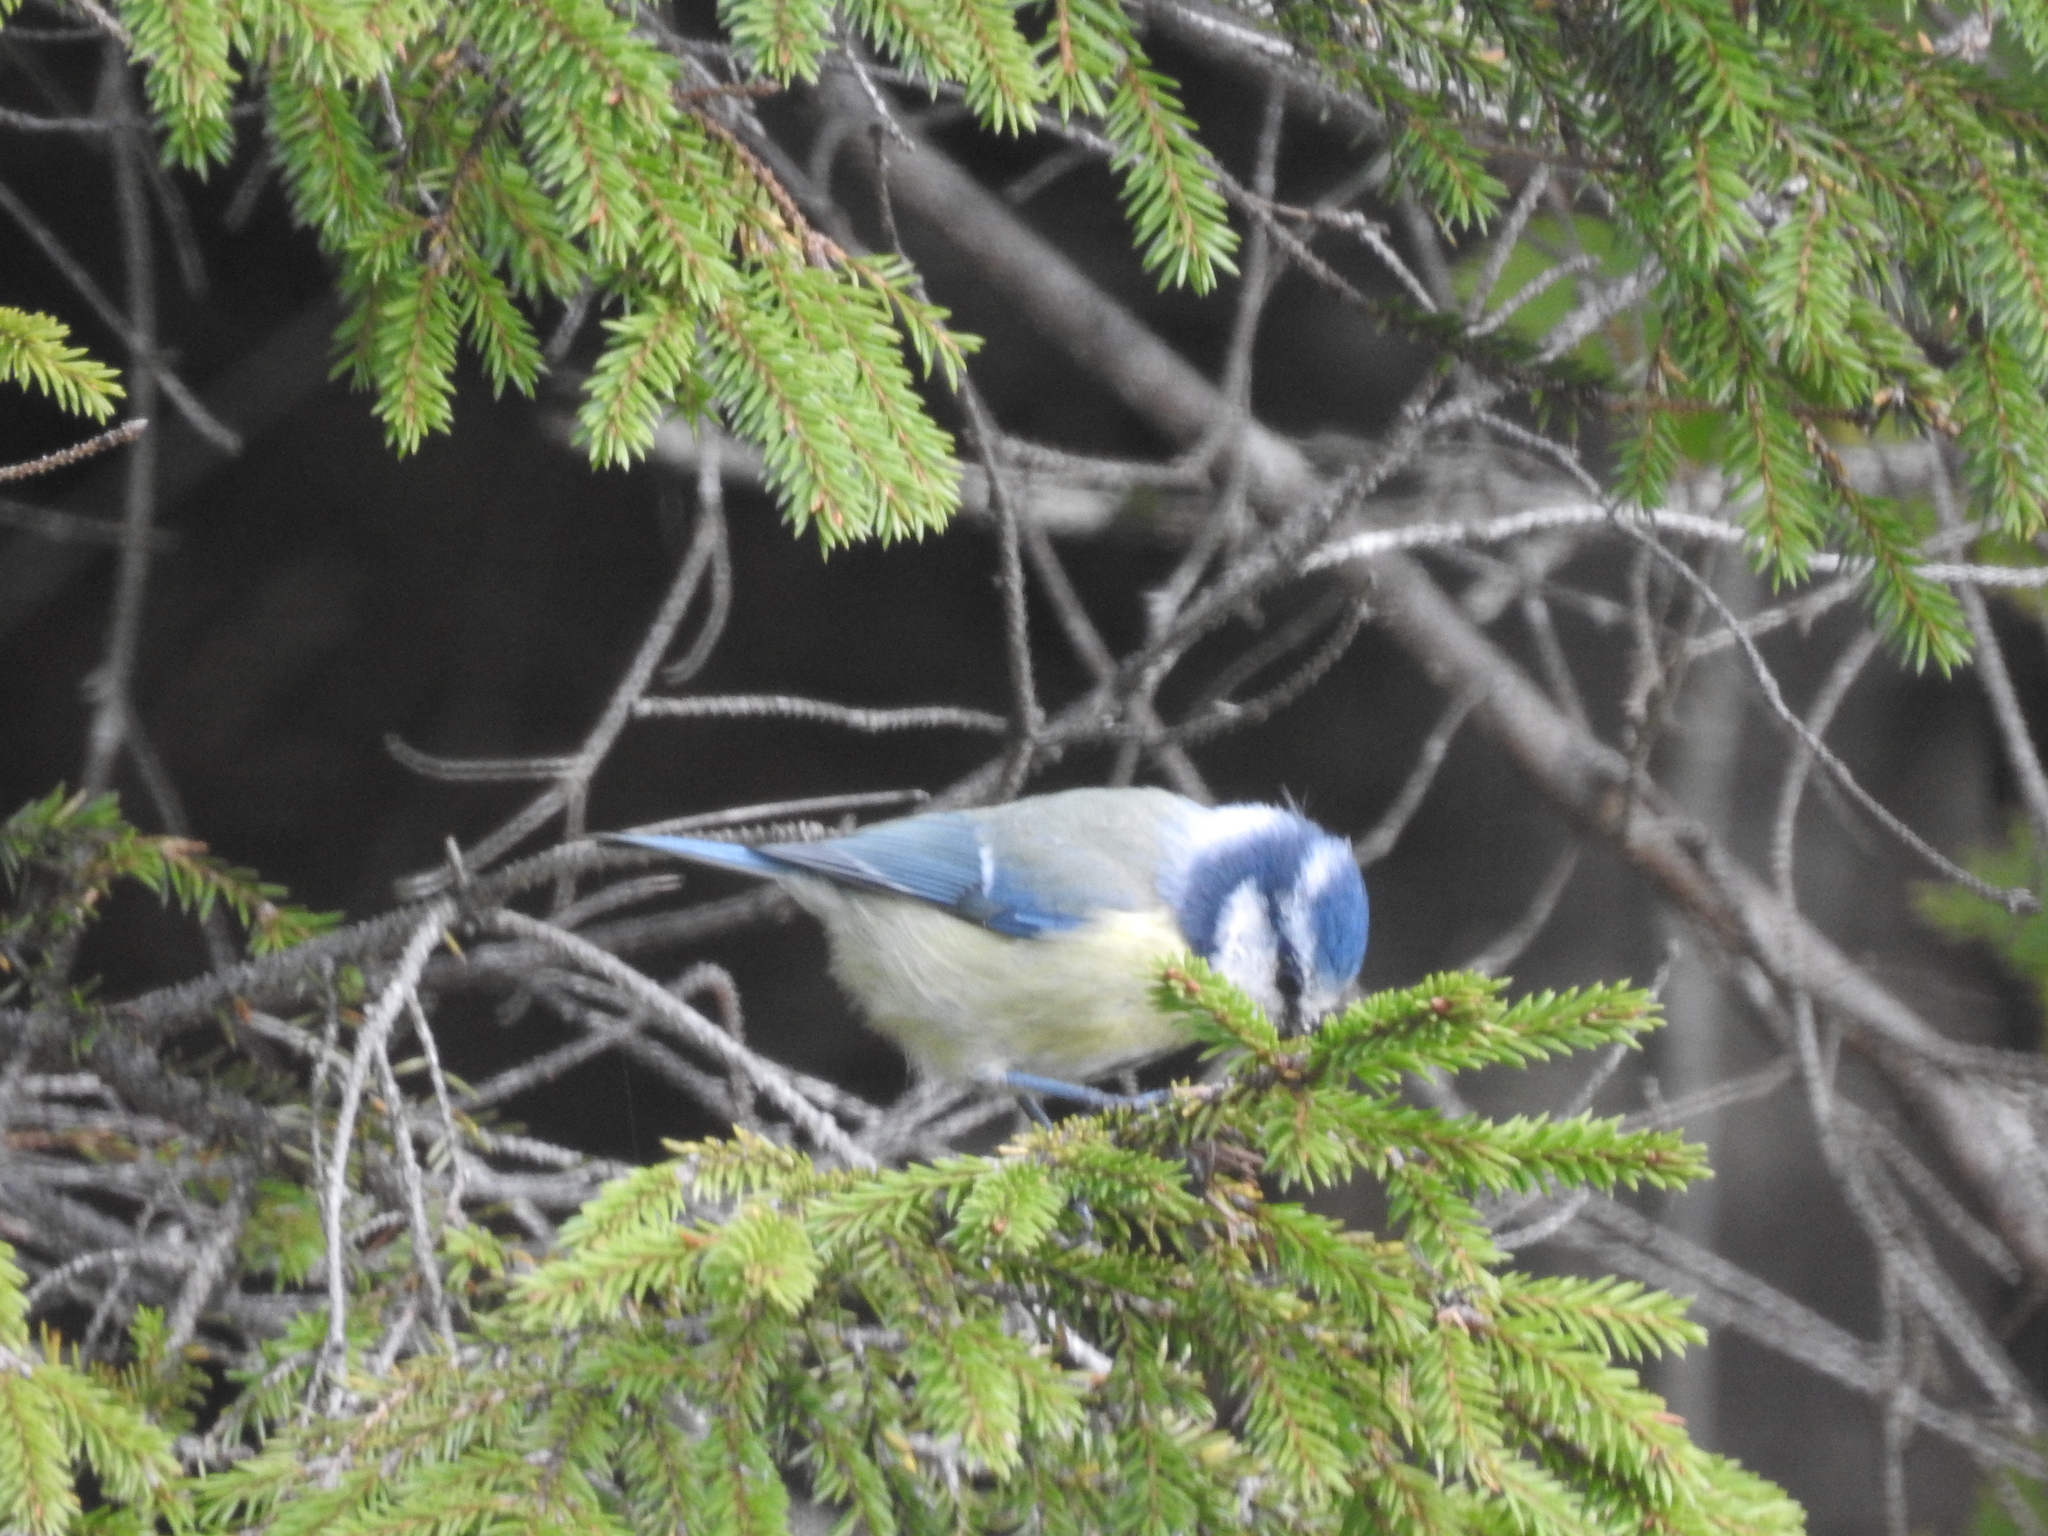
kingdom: Animalia
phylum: Chordata
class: Aves
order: Passeriformes
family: Paridae
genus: Cyanistes
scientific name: Cyanistes caeruleus
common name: Eurasian blue tit
